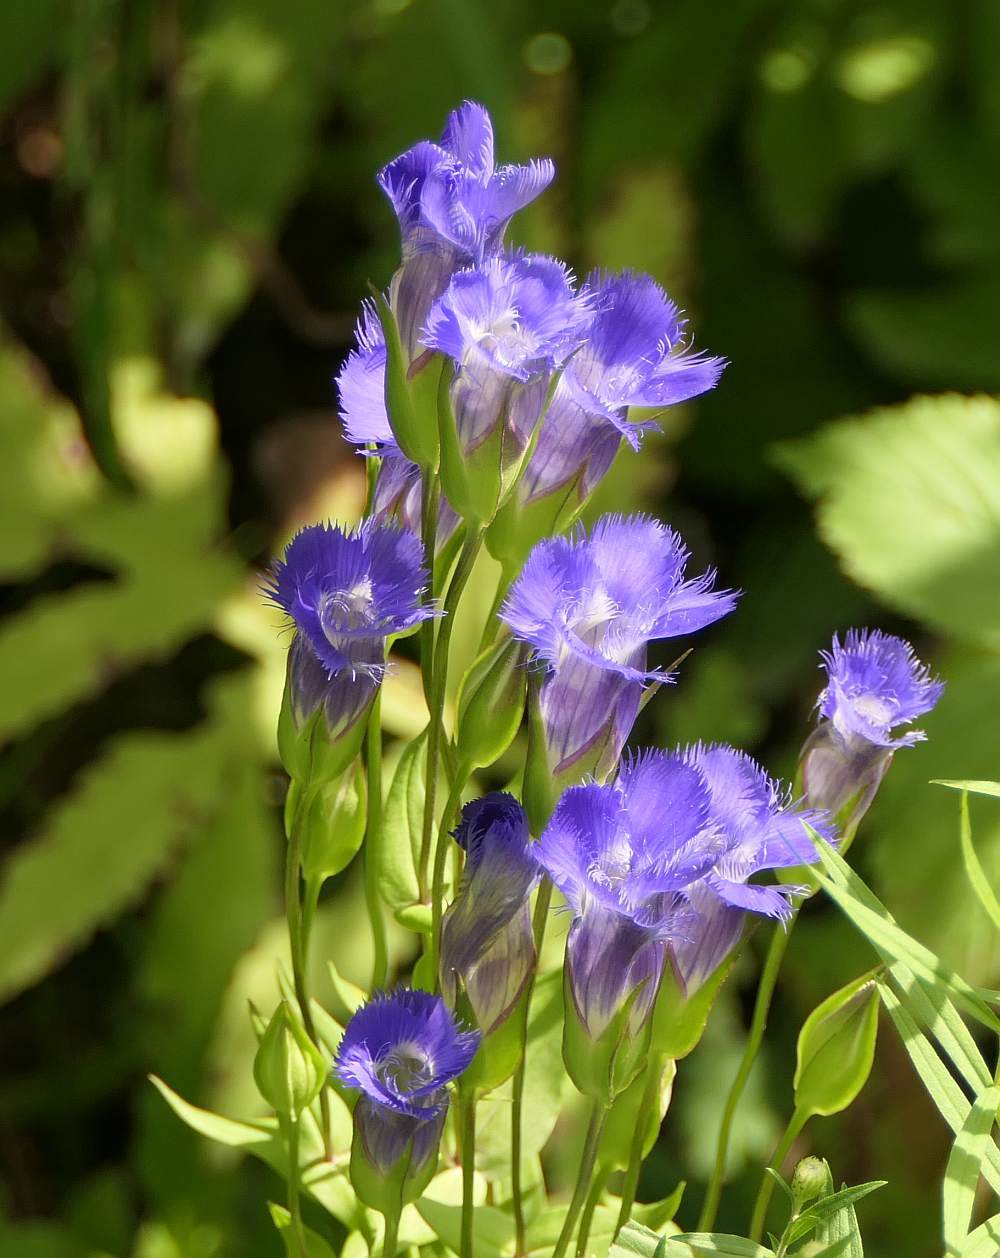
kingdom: Plantae
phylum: Tracheophyta
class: Magnoliopsida
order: Gentianales
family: Gentianaceae
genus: Gentianopsis
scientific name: Gentianopsis crinita
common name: Fringed-gentian
